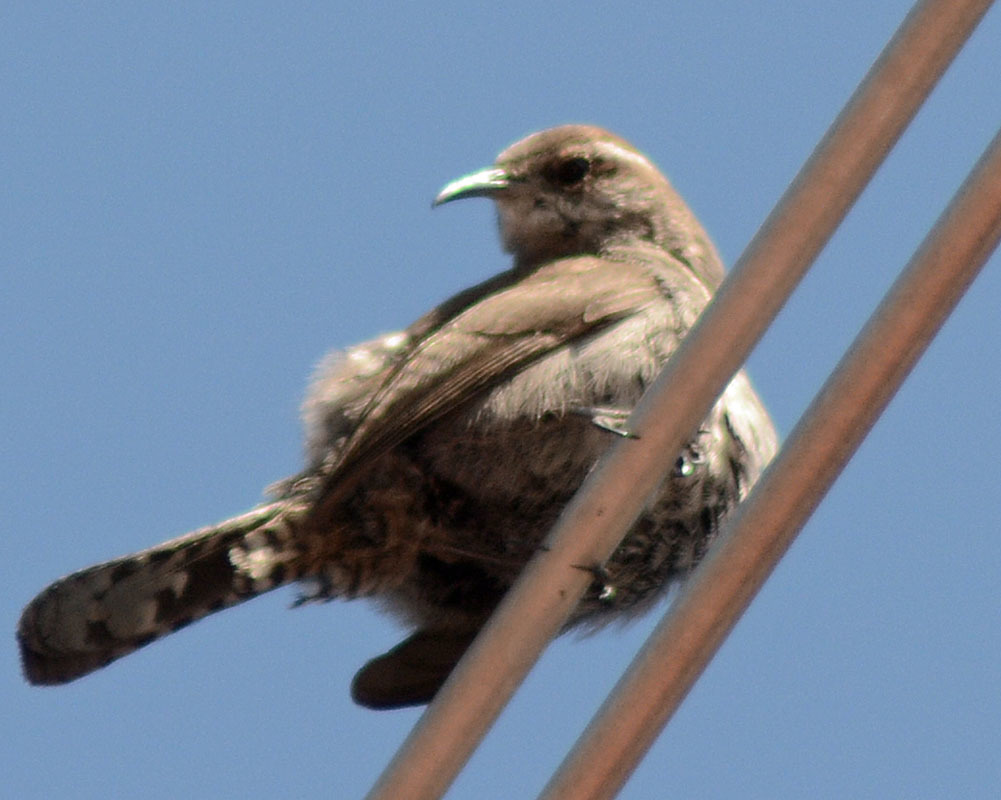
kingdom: Animalia
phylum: Chordata
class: Aves
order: Passeriformes
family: Troglodytidae
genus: Thryomanes
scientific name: Thryomanes bewickii
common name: Bewick's wren
